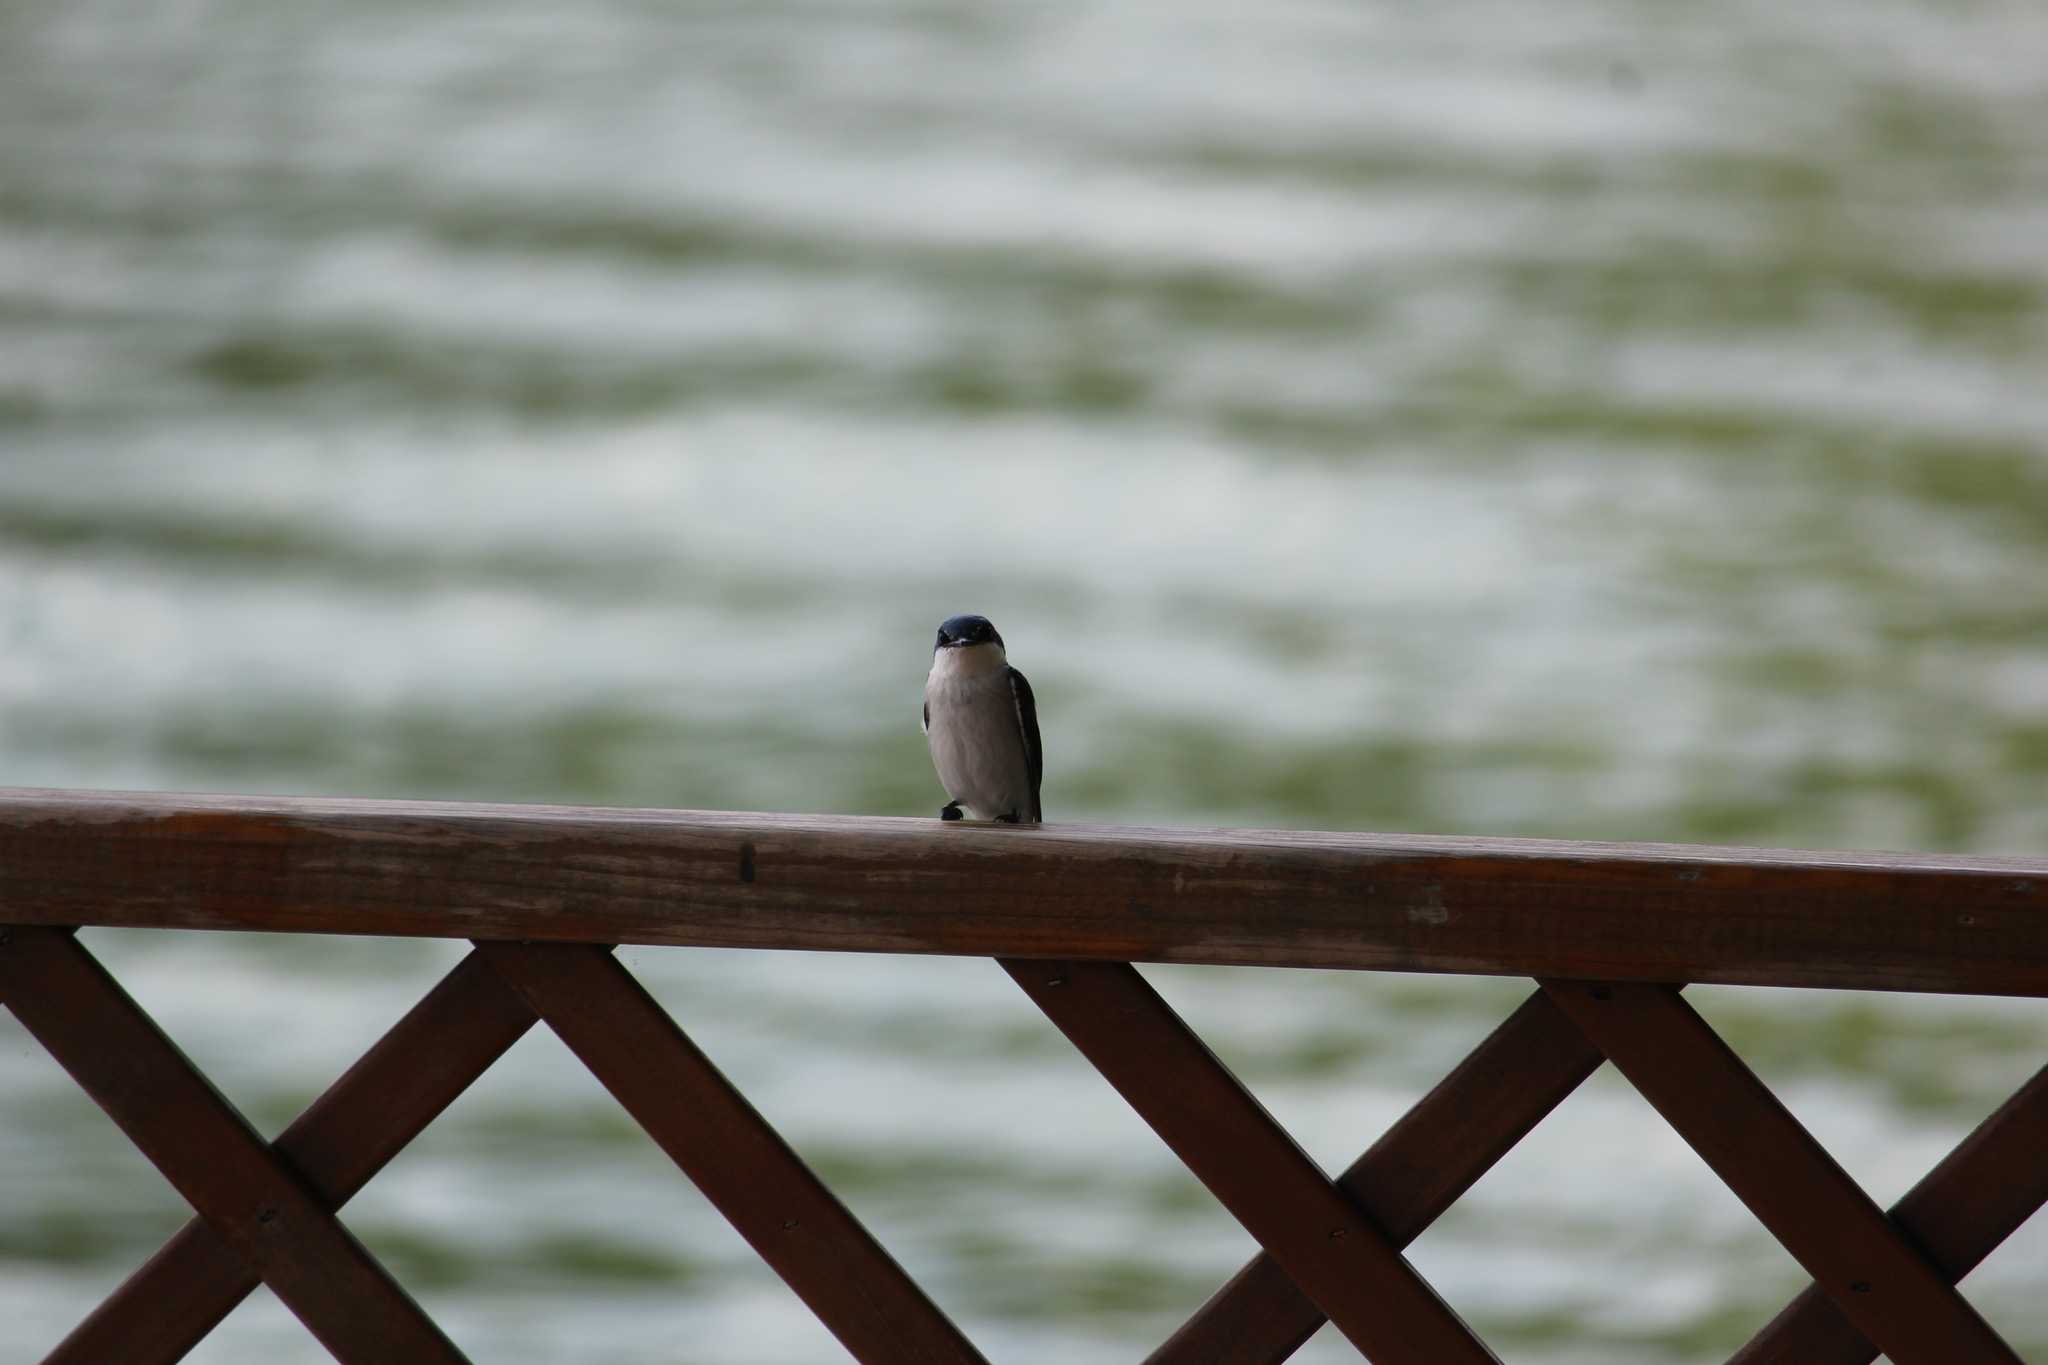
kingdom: Animalia
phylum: Chordata
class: Aves
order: Passeriformes
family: Hirundinidae
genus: Tachycineta
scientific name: Tachycineta albilinea
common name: Mangrove swallow
